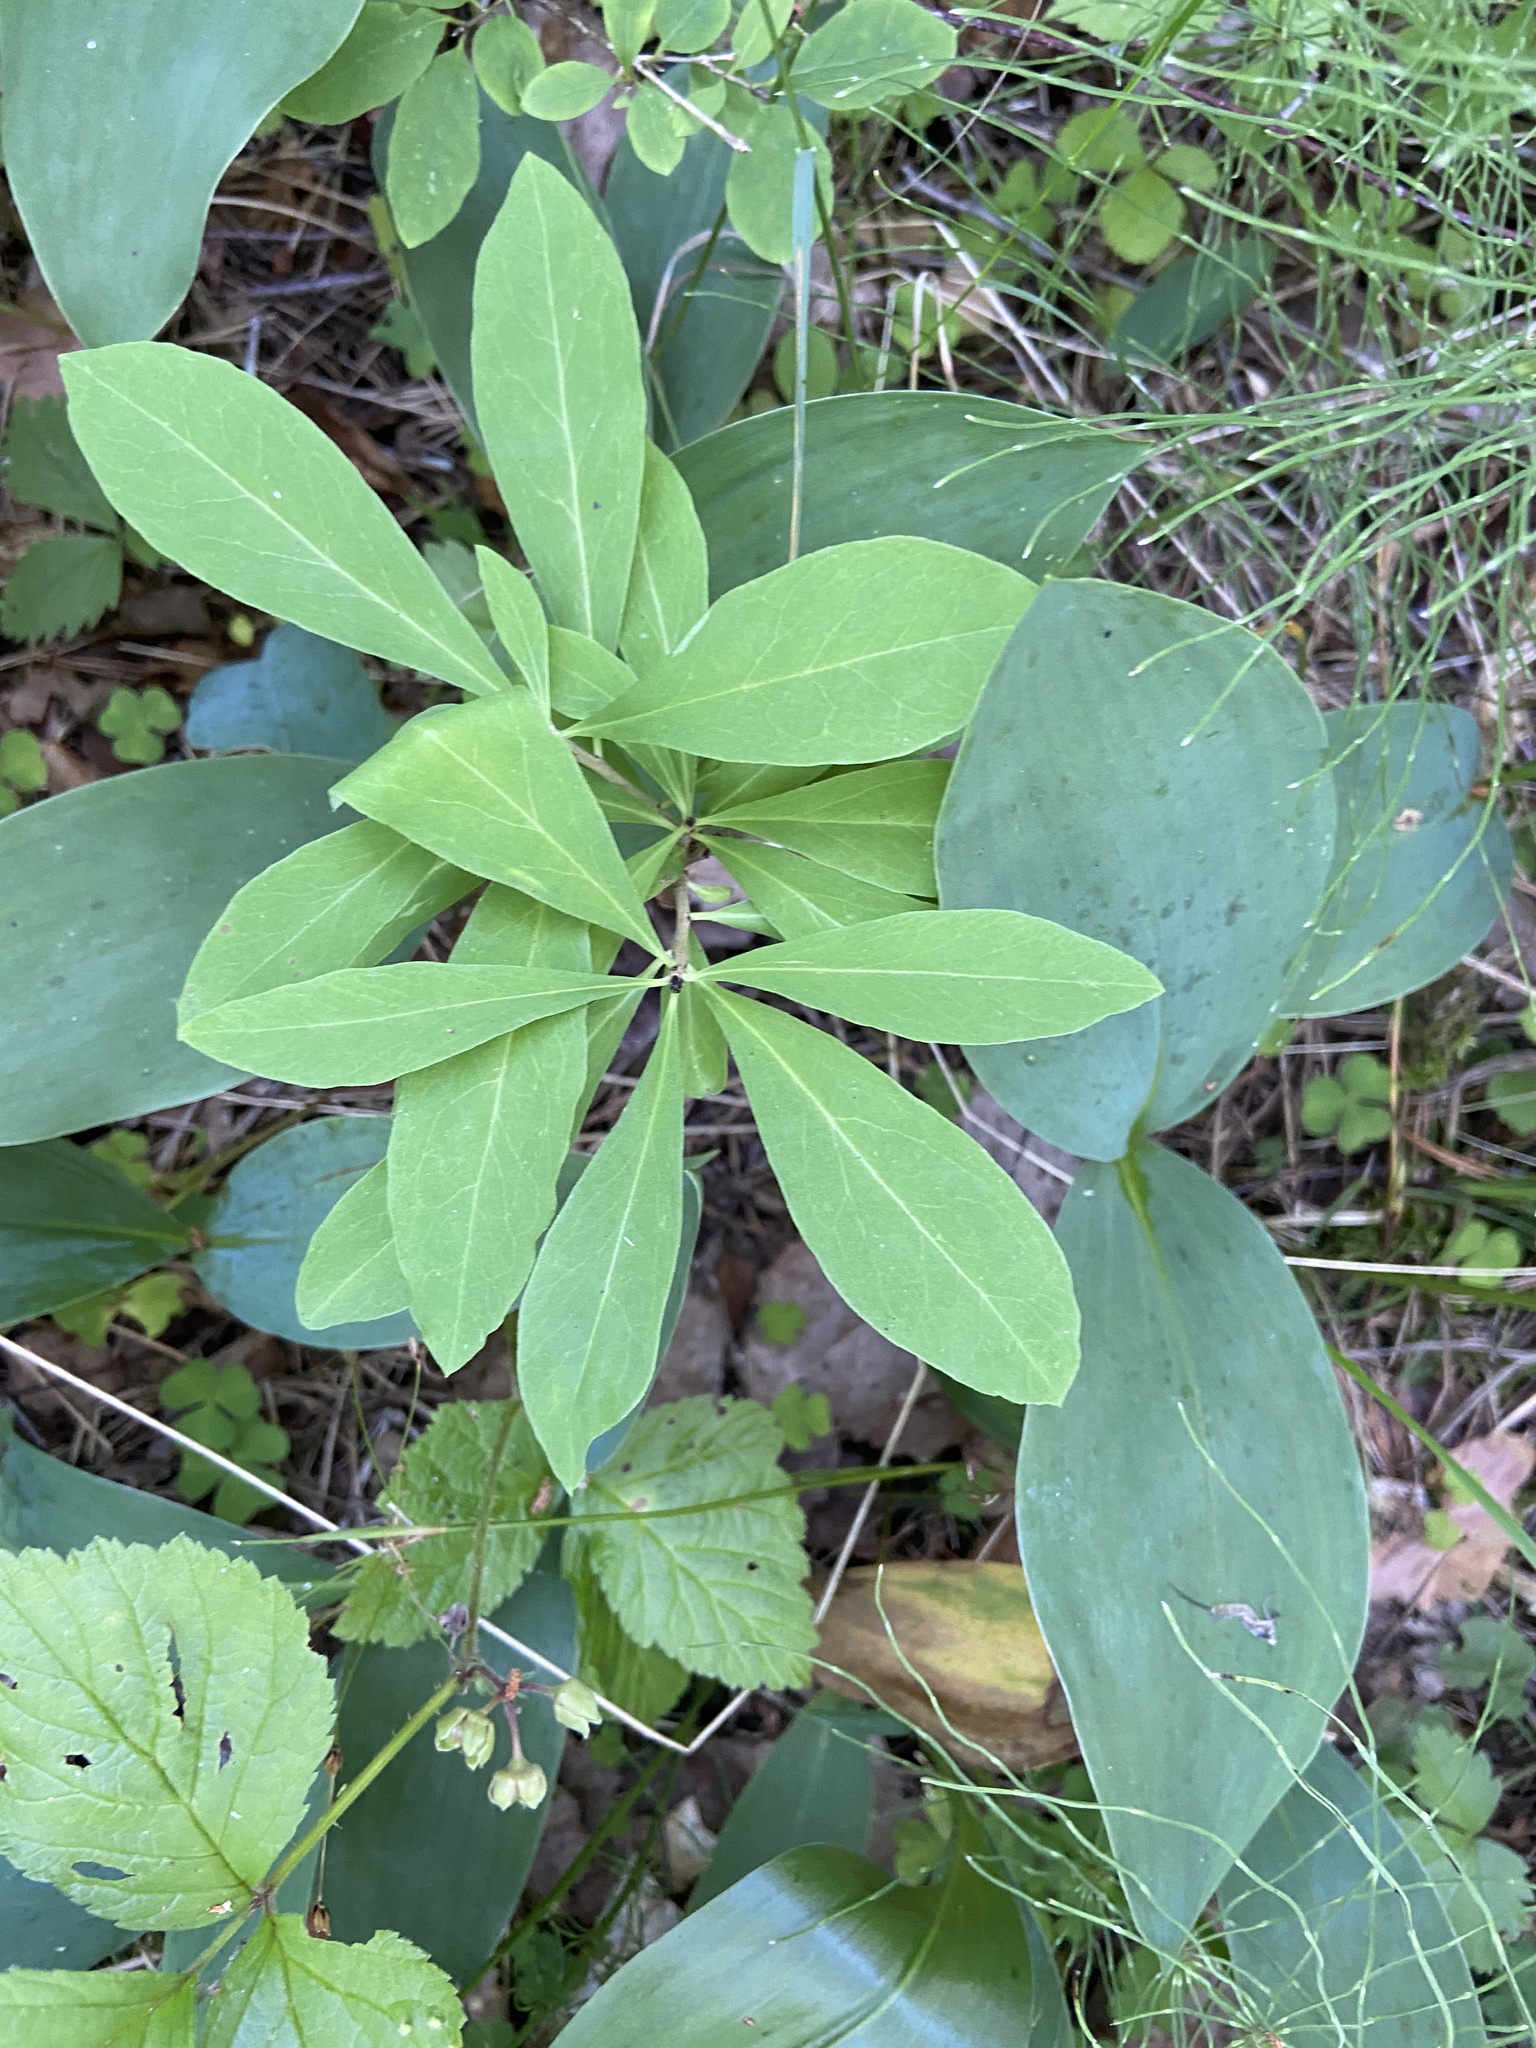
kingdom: Plantae
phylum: Tracheophyta
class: Magnoliopsida
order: Malvales
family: Thymelaeaceae
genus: Daphne
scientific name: Daphne mezereum
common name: Mezereon
